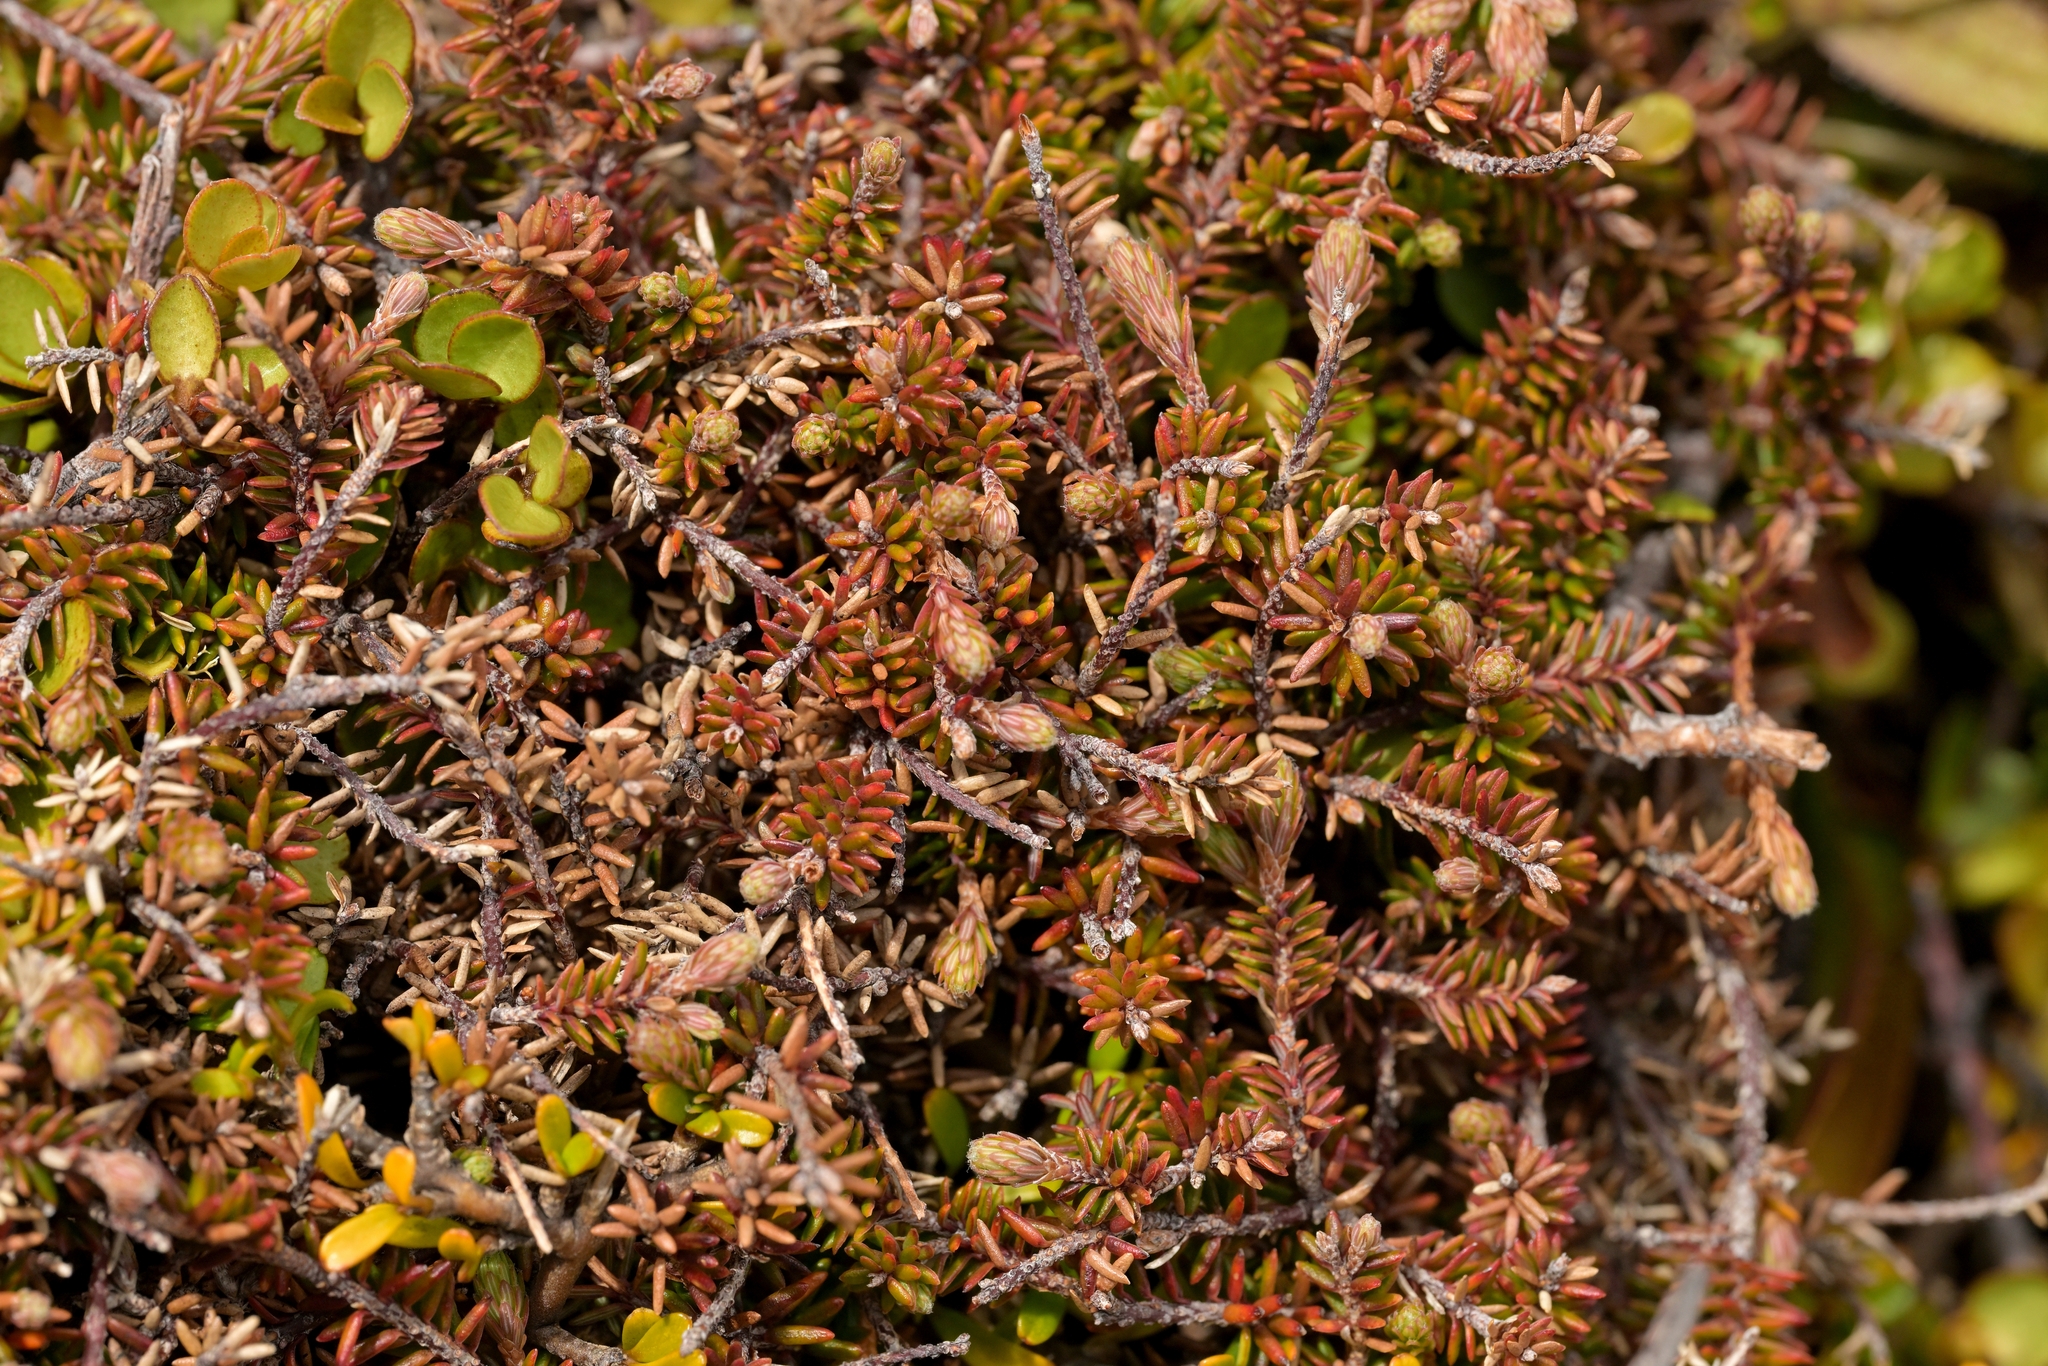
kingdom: Plantae
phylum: Tracheophyta
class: Magnoliopsida
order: Ericales
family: Ericaceae
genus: Androstoma
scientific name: Androstoma empetrifolia
